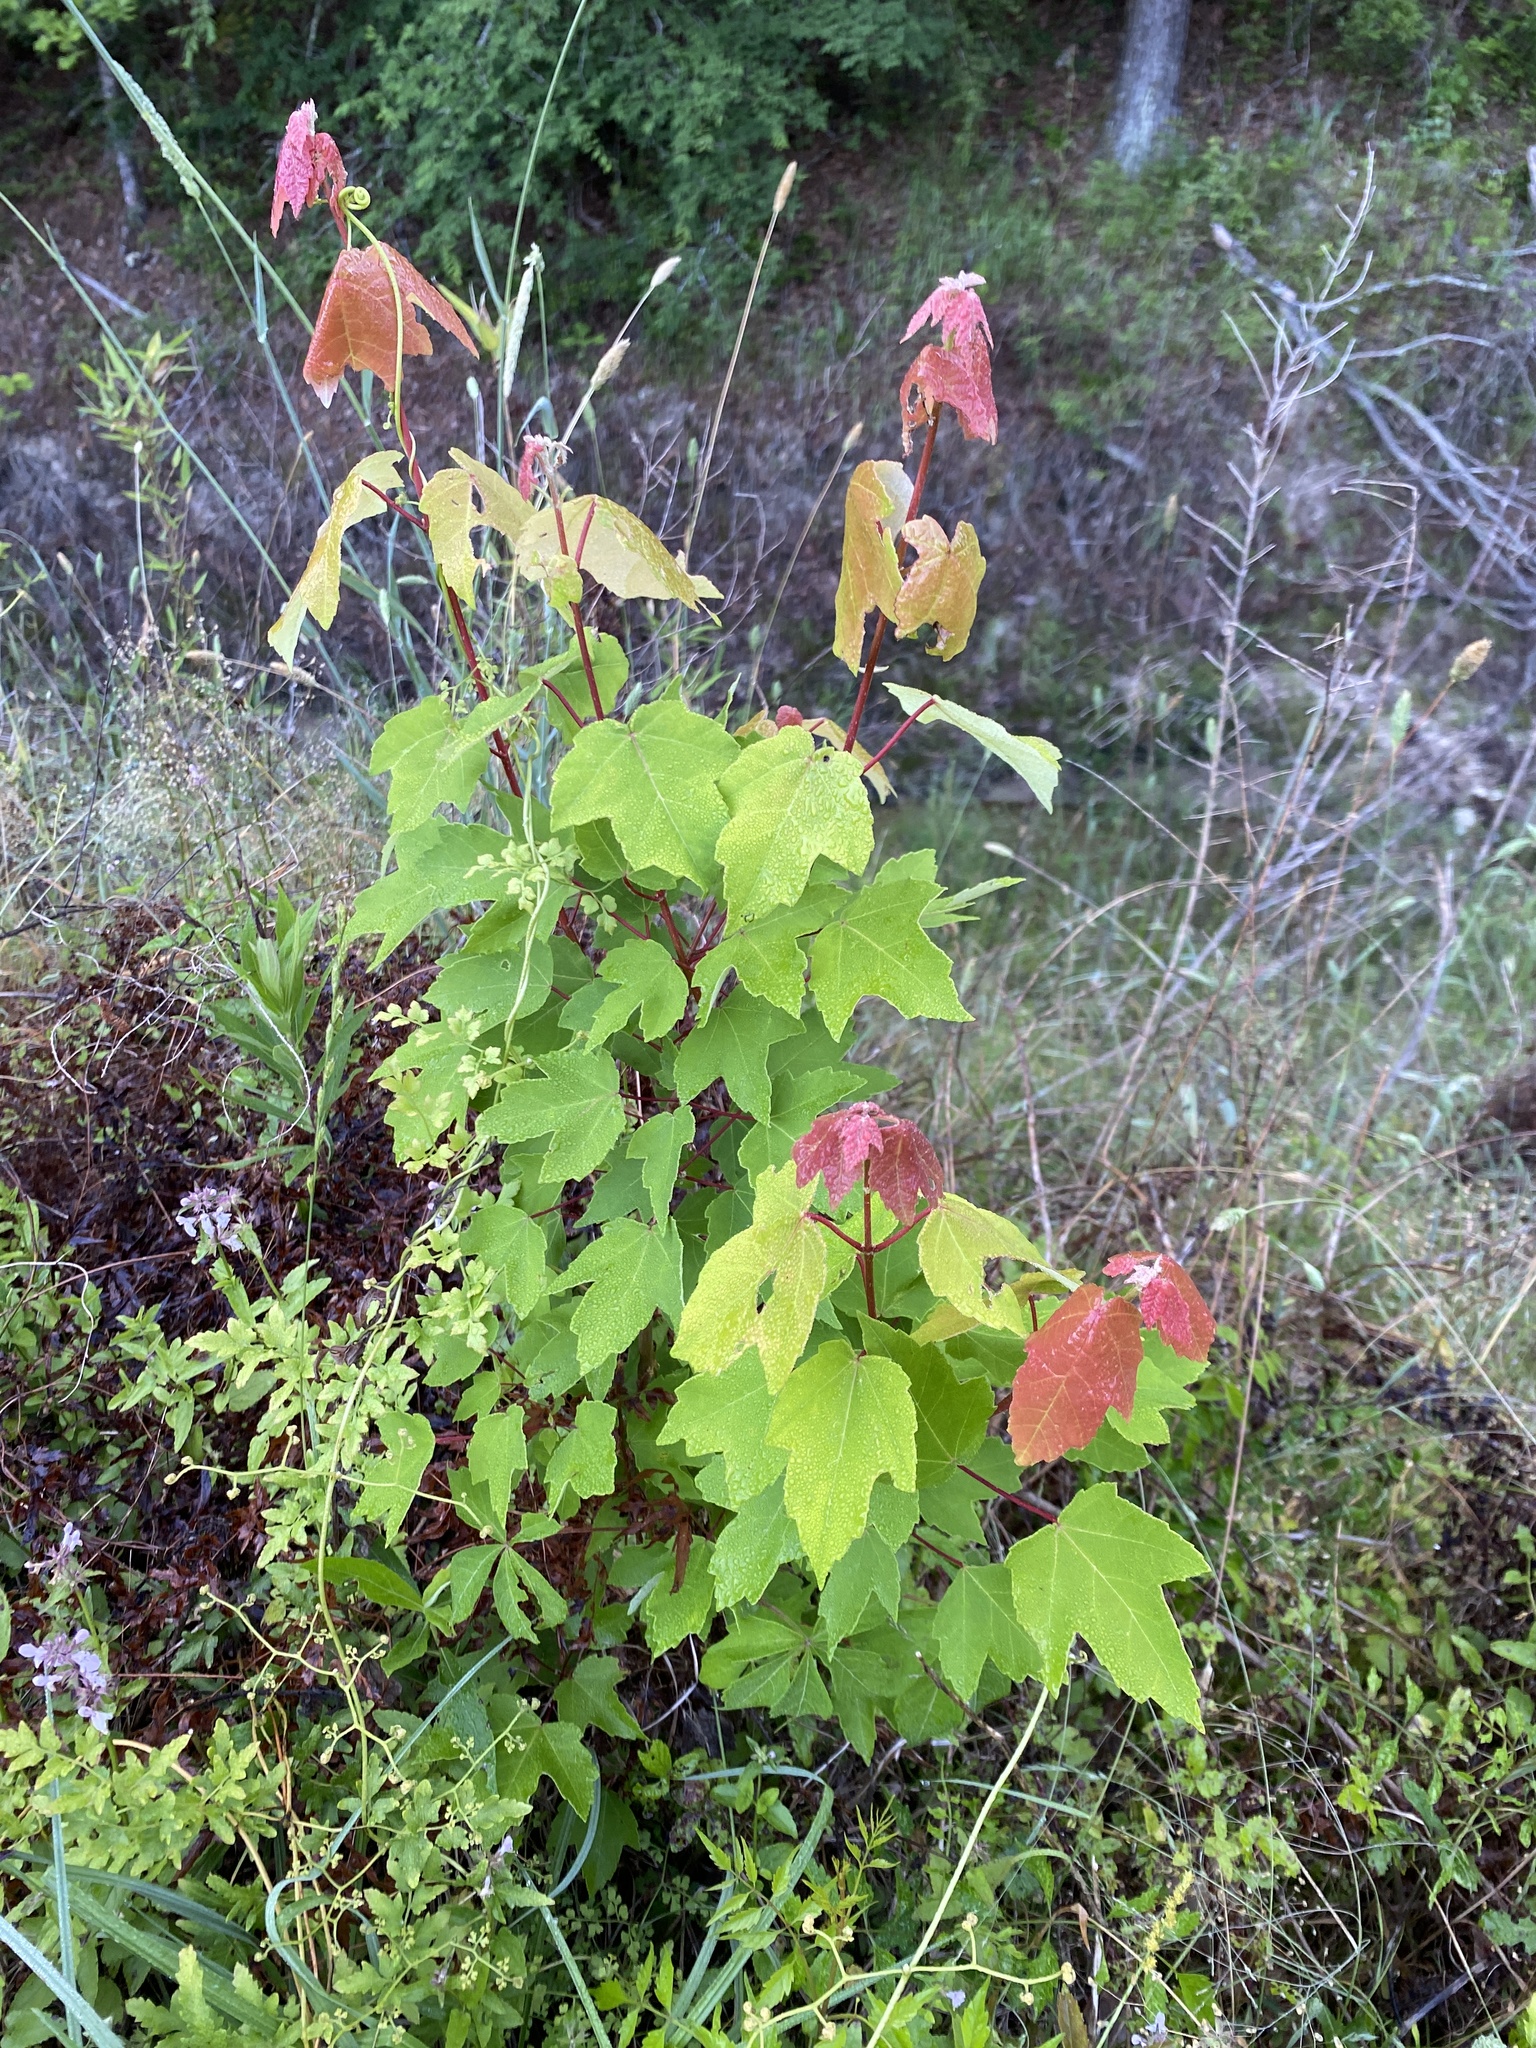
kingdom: Plantae
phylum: Tracheophyta
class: Magnoliopsida
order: Sapindales
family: Sapindaceae
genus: Acer
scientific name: Acer rubrum
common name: Red maple
